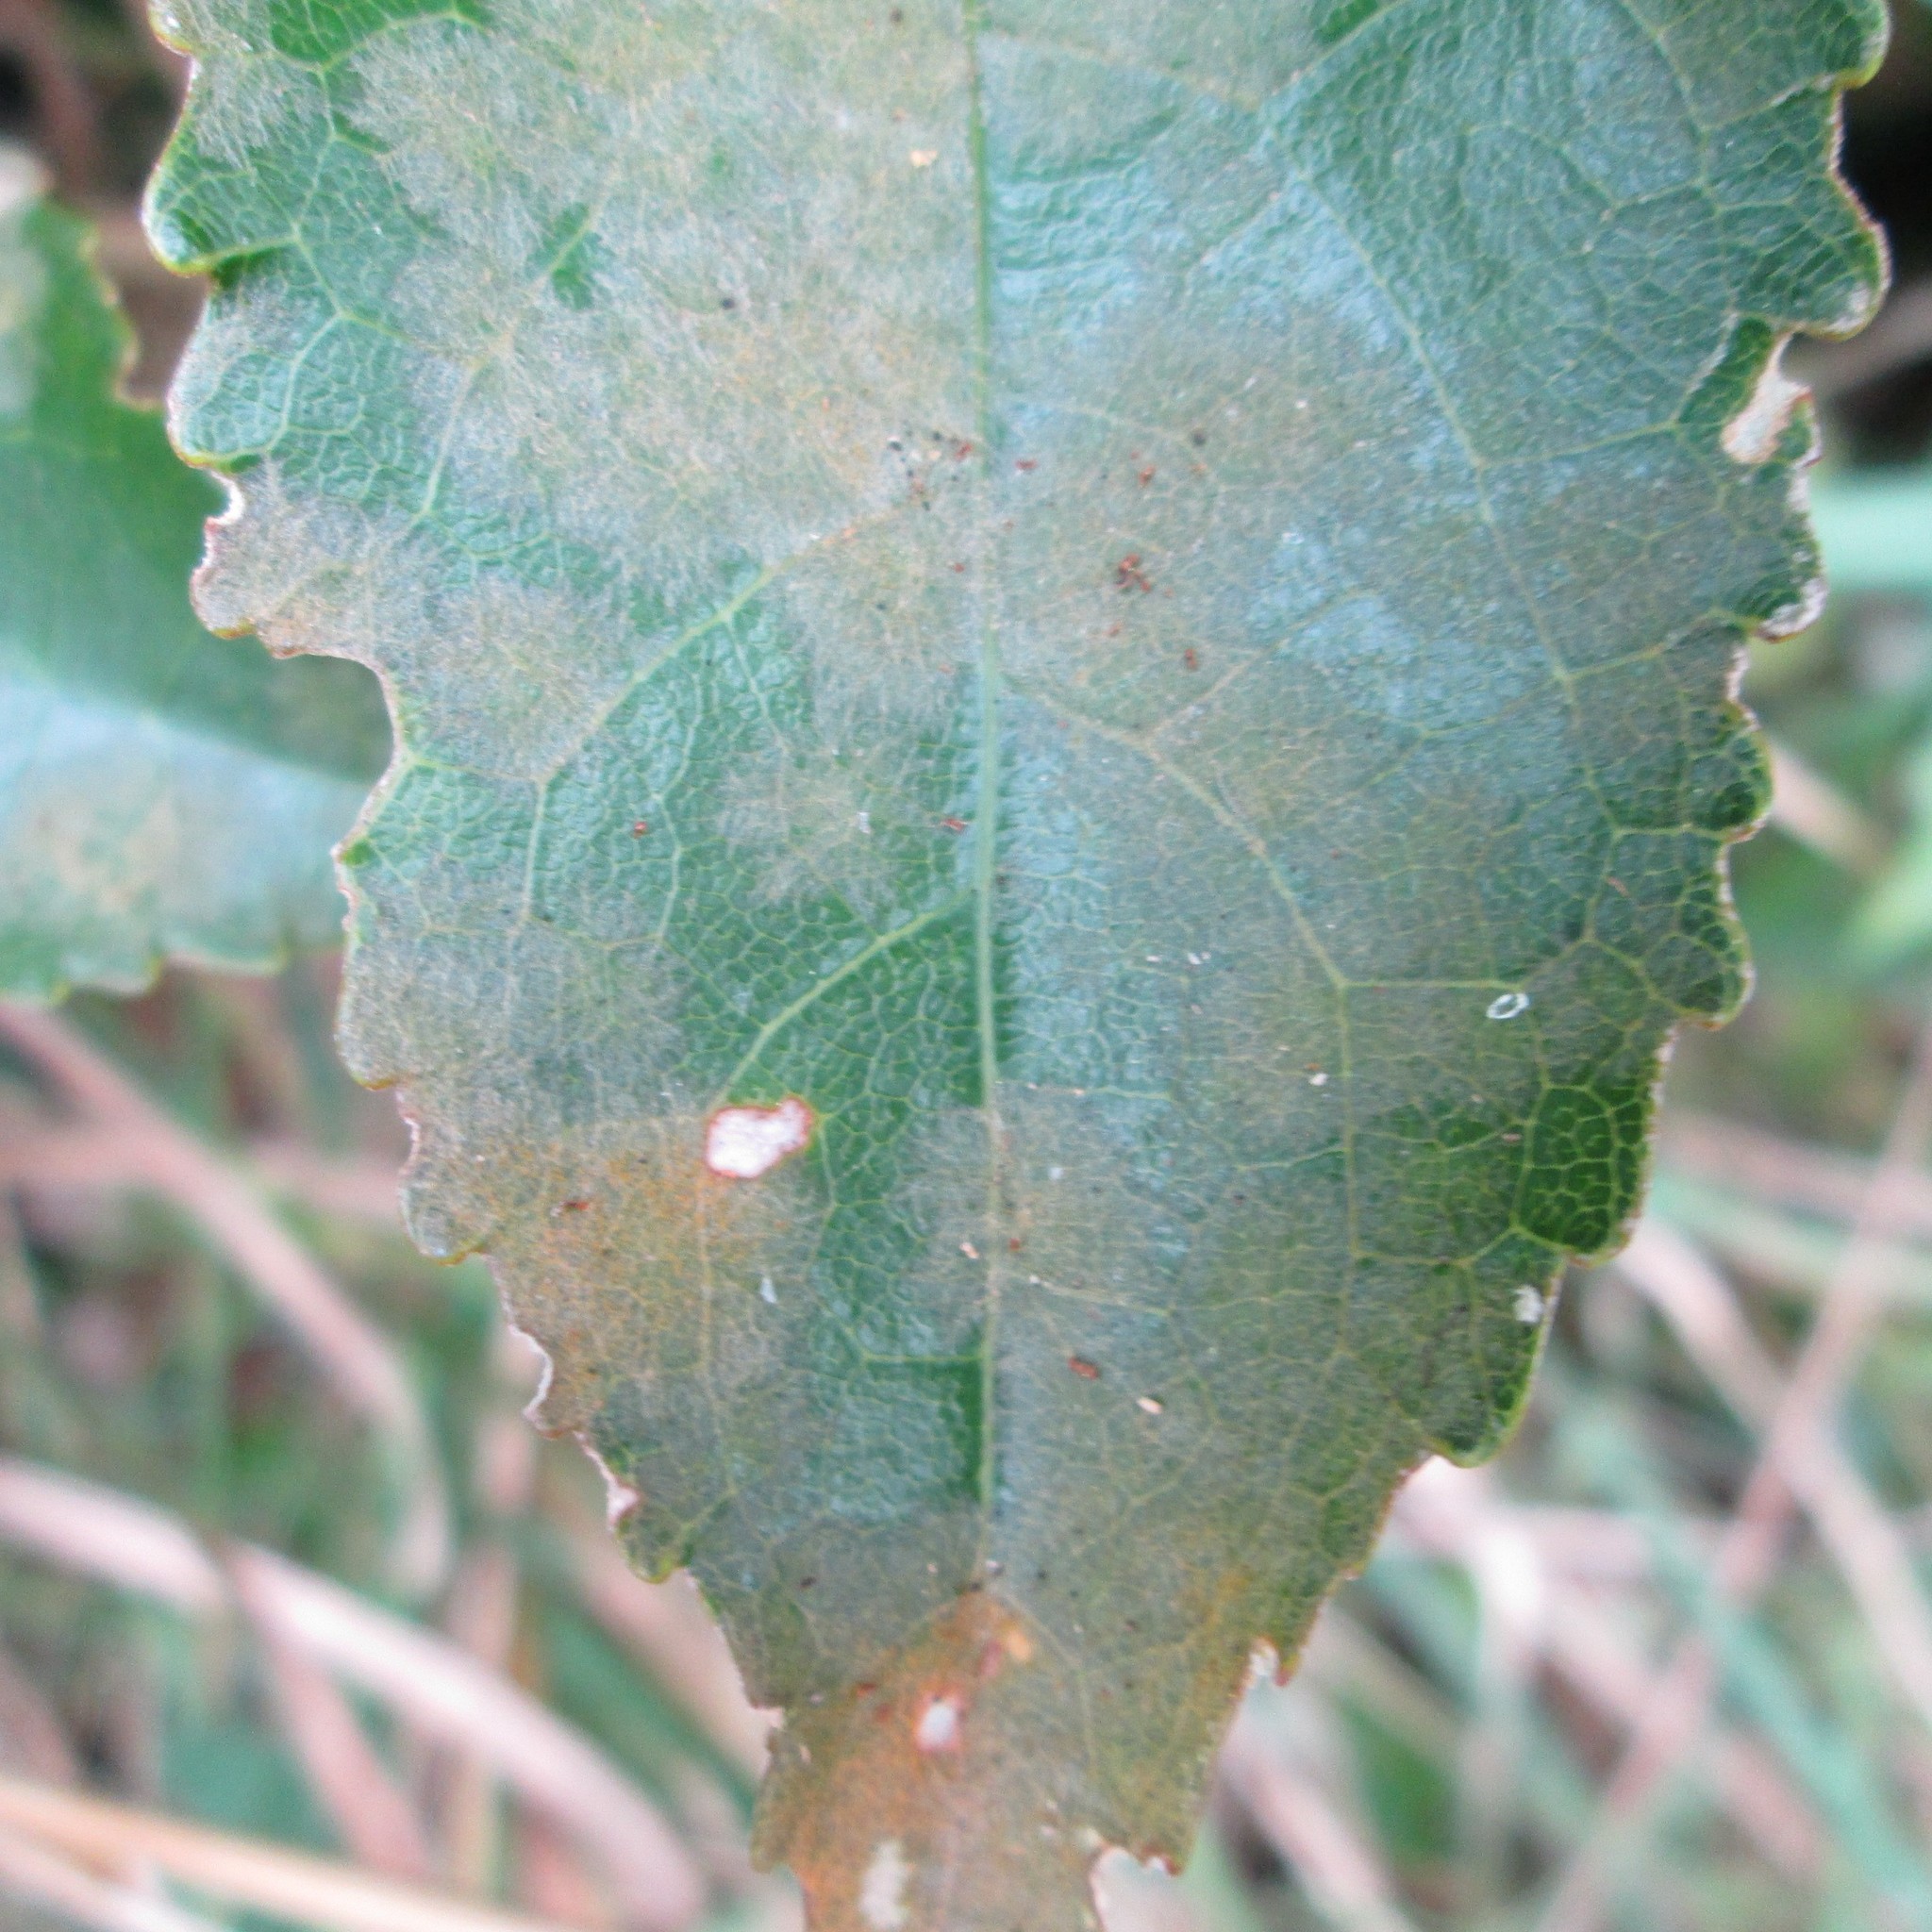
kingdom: Plantae
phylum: Chlorophyta
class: Ulvophyceae
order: Trentepohliales
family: Trentepohliaceae
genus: Cephaleuros
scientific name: Cephaleuros
